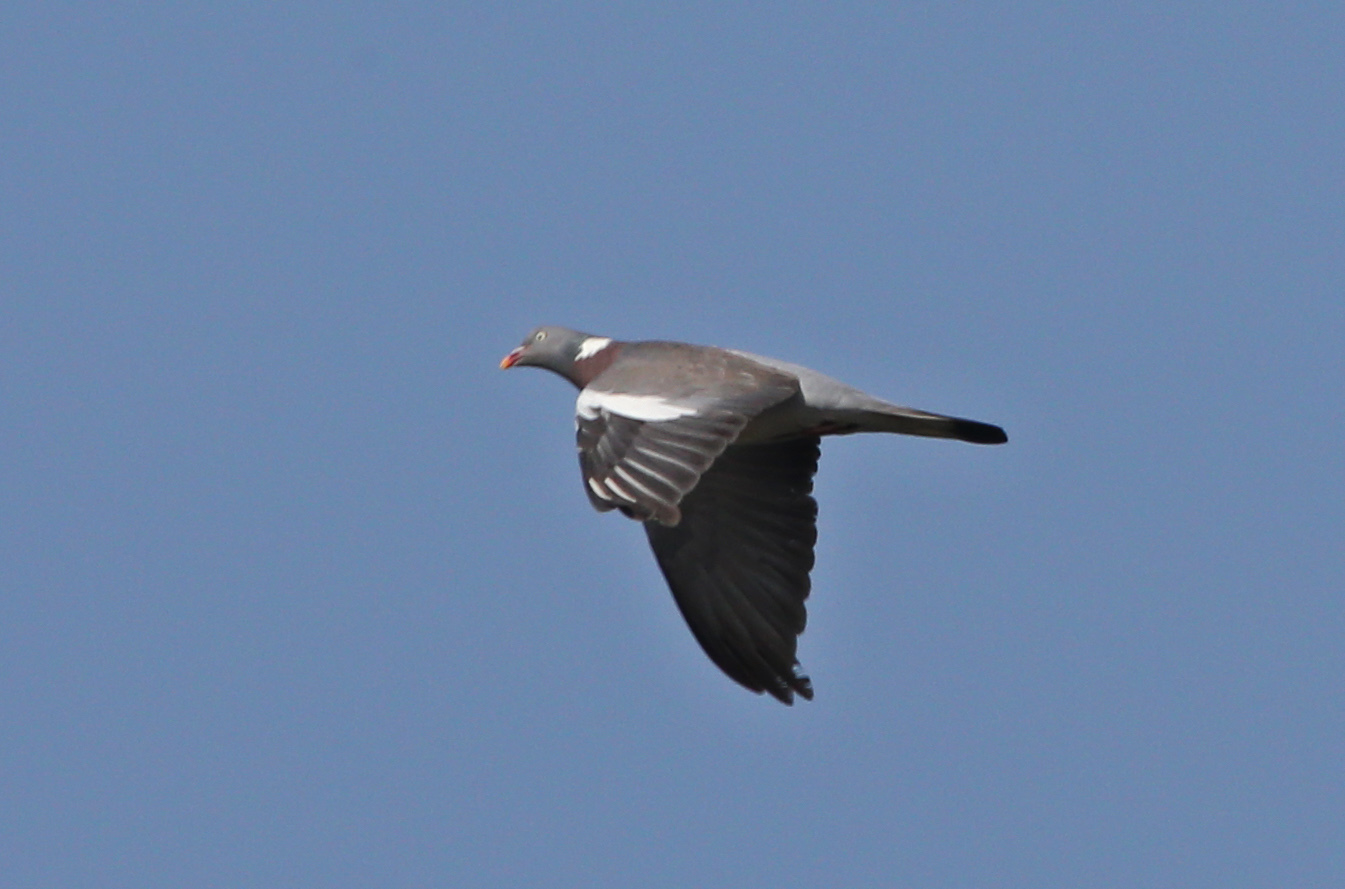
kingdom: Animalia
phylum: Chordata
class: Aves
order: Columbiformes
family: Columbidae
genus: Columba
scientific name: Columba palumbus
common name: Common wood pigeon
